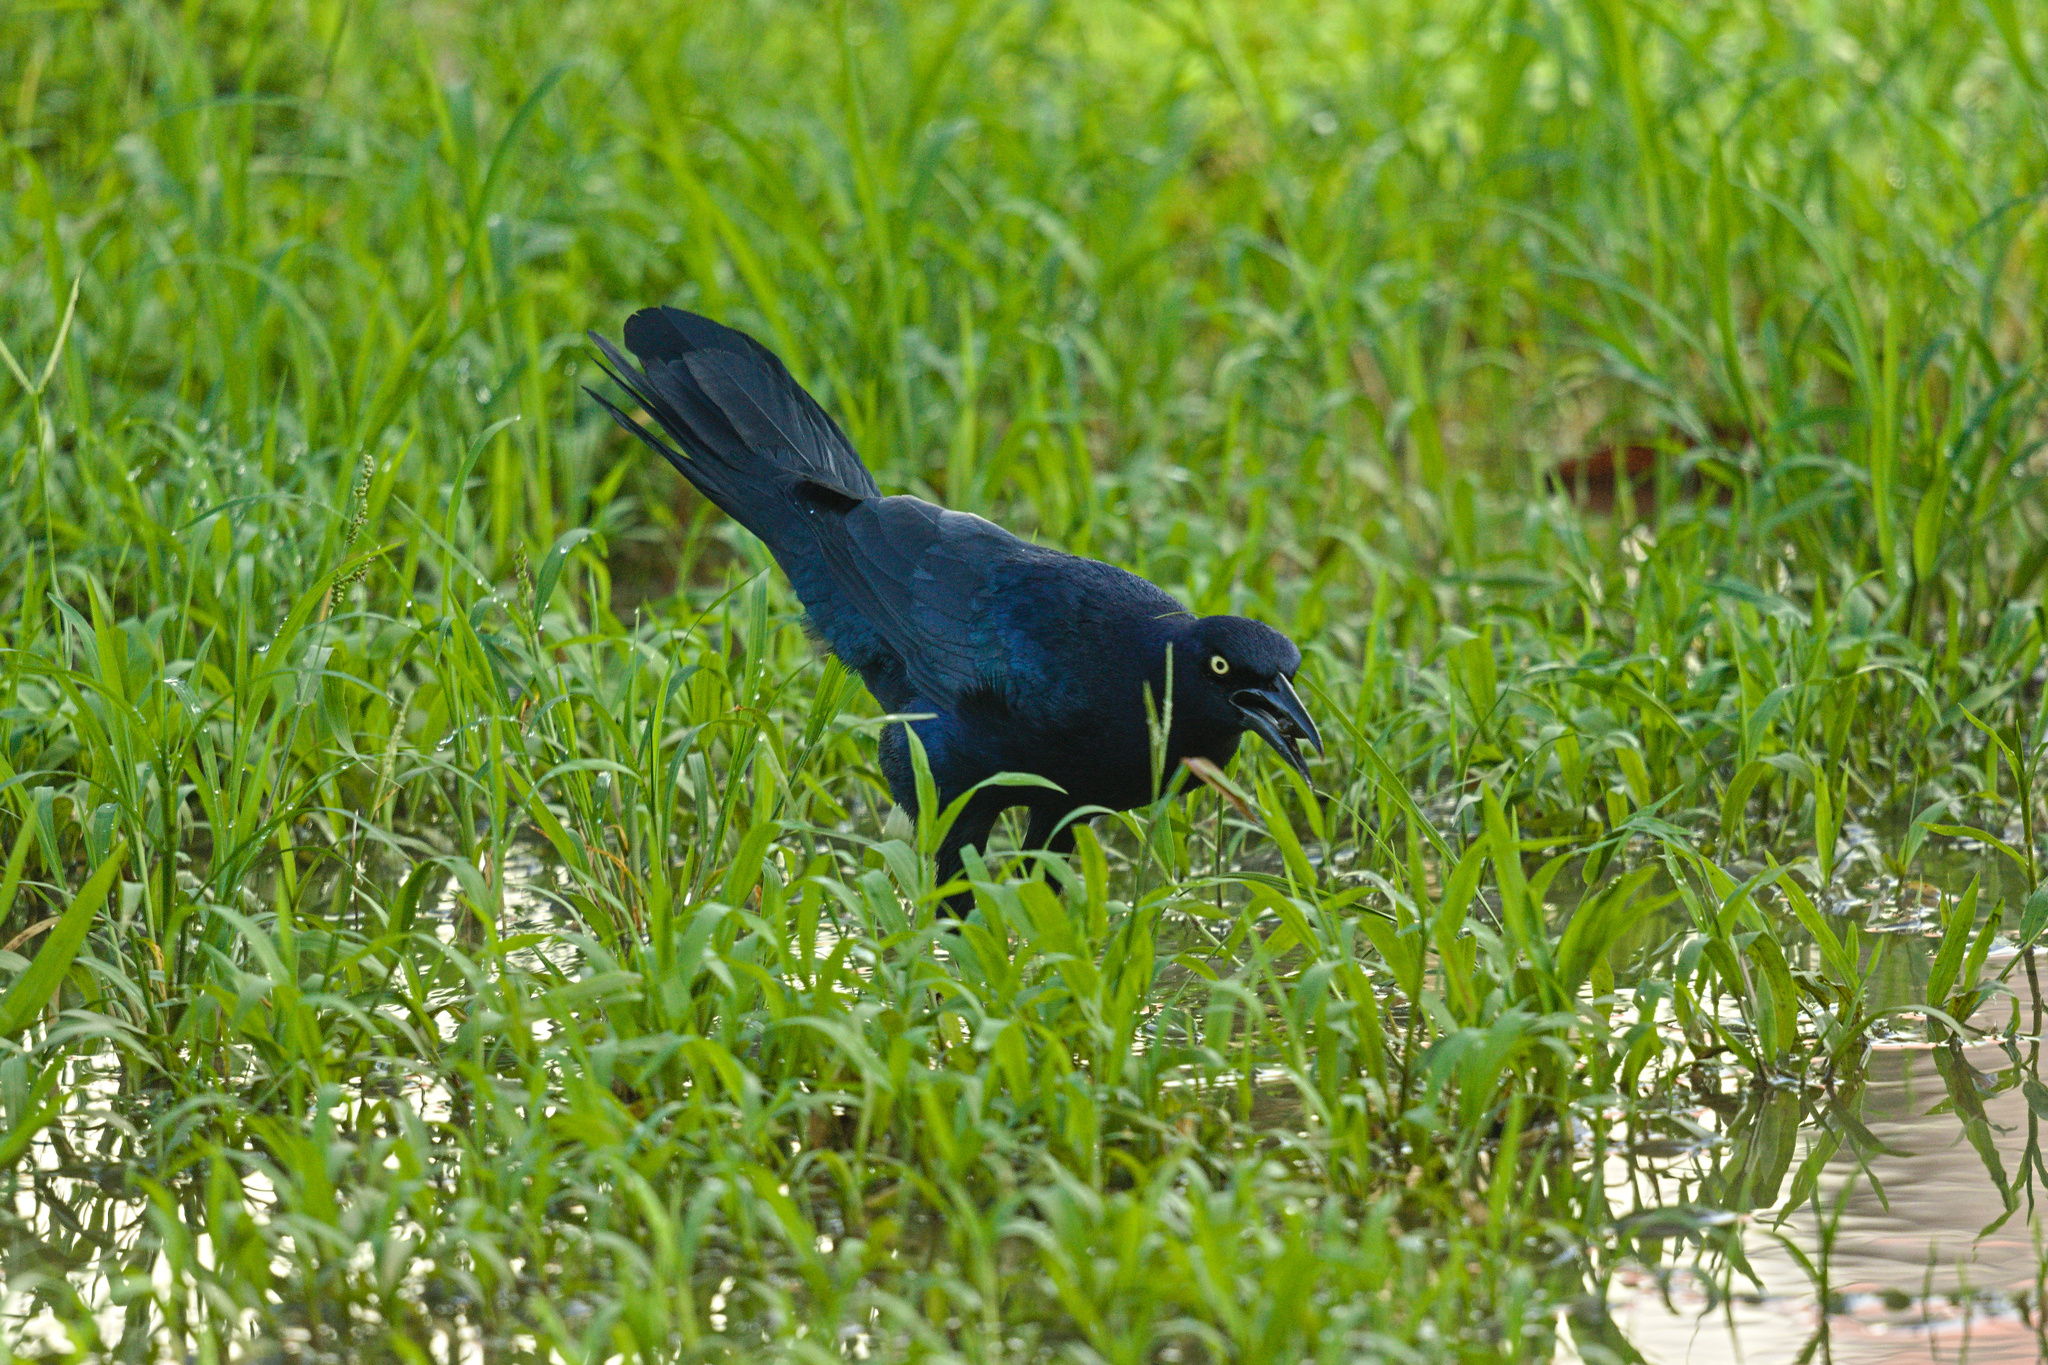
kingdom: Animalia
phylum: Chordata
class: Aves
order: Passeriformes
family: Icteridae
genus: Quiscalus
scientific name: Quiscalus mexicanus
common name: Great-tailed grackle
